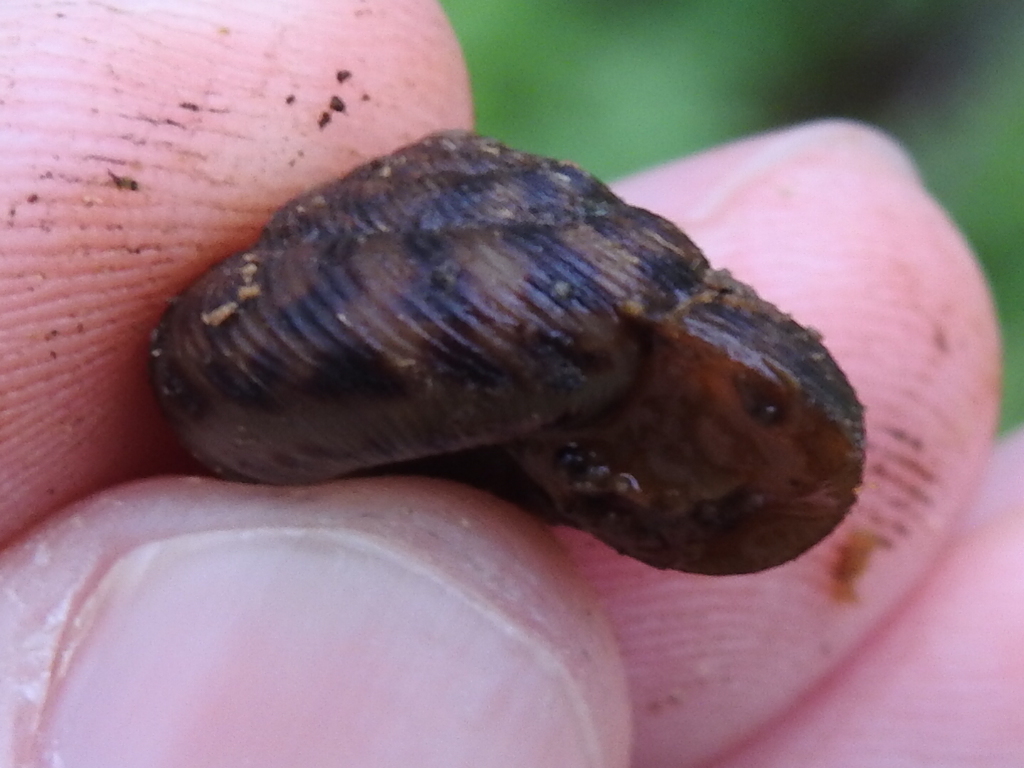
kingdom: Animalia
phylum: Mollusca
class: Gastropoda
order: Stylommatophora
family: Discidae
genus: Anguispira
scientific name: Anguispira strongylodes
